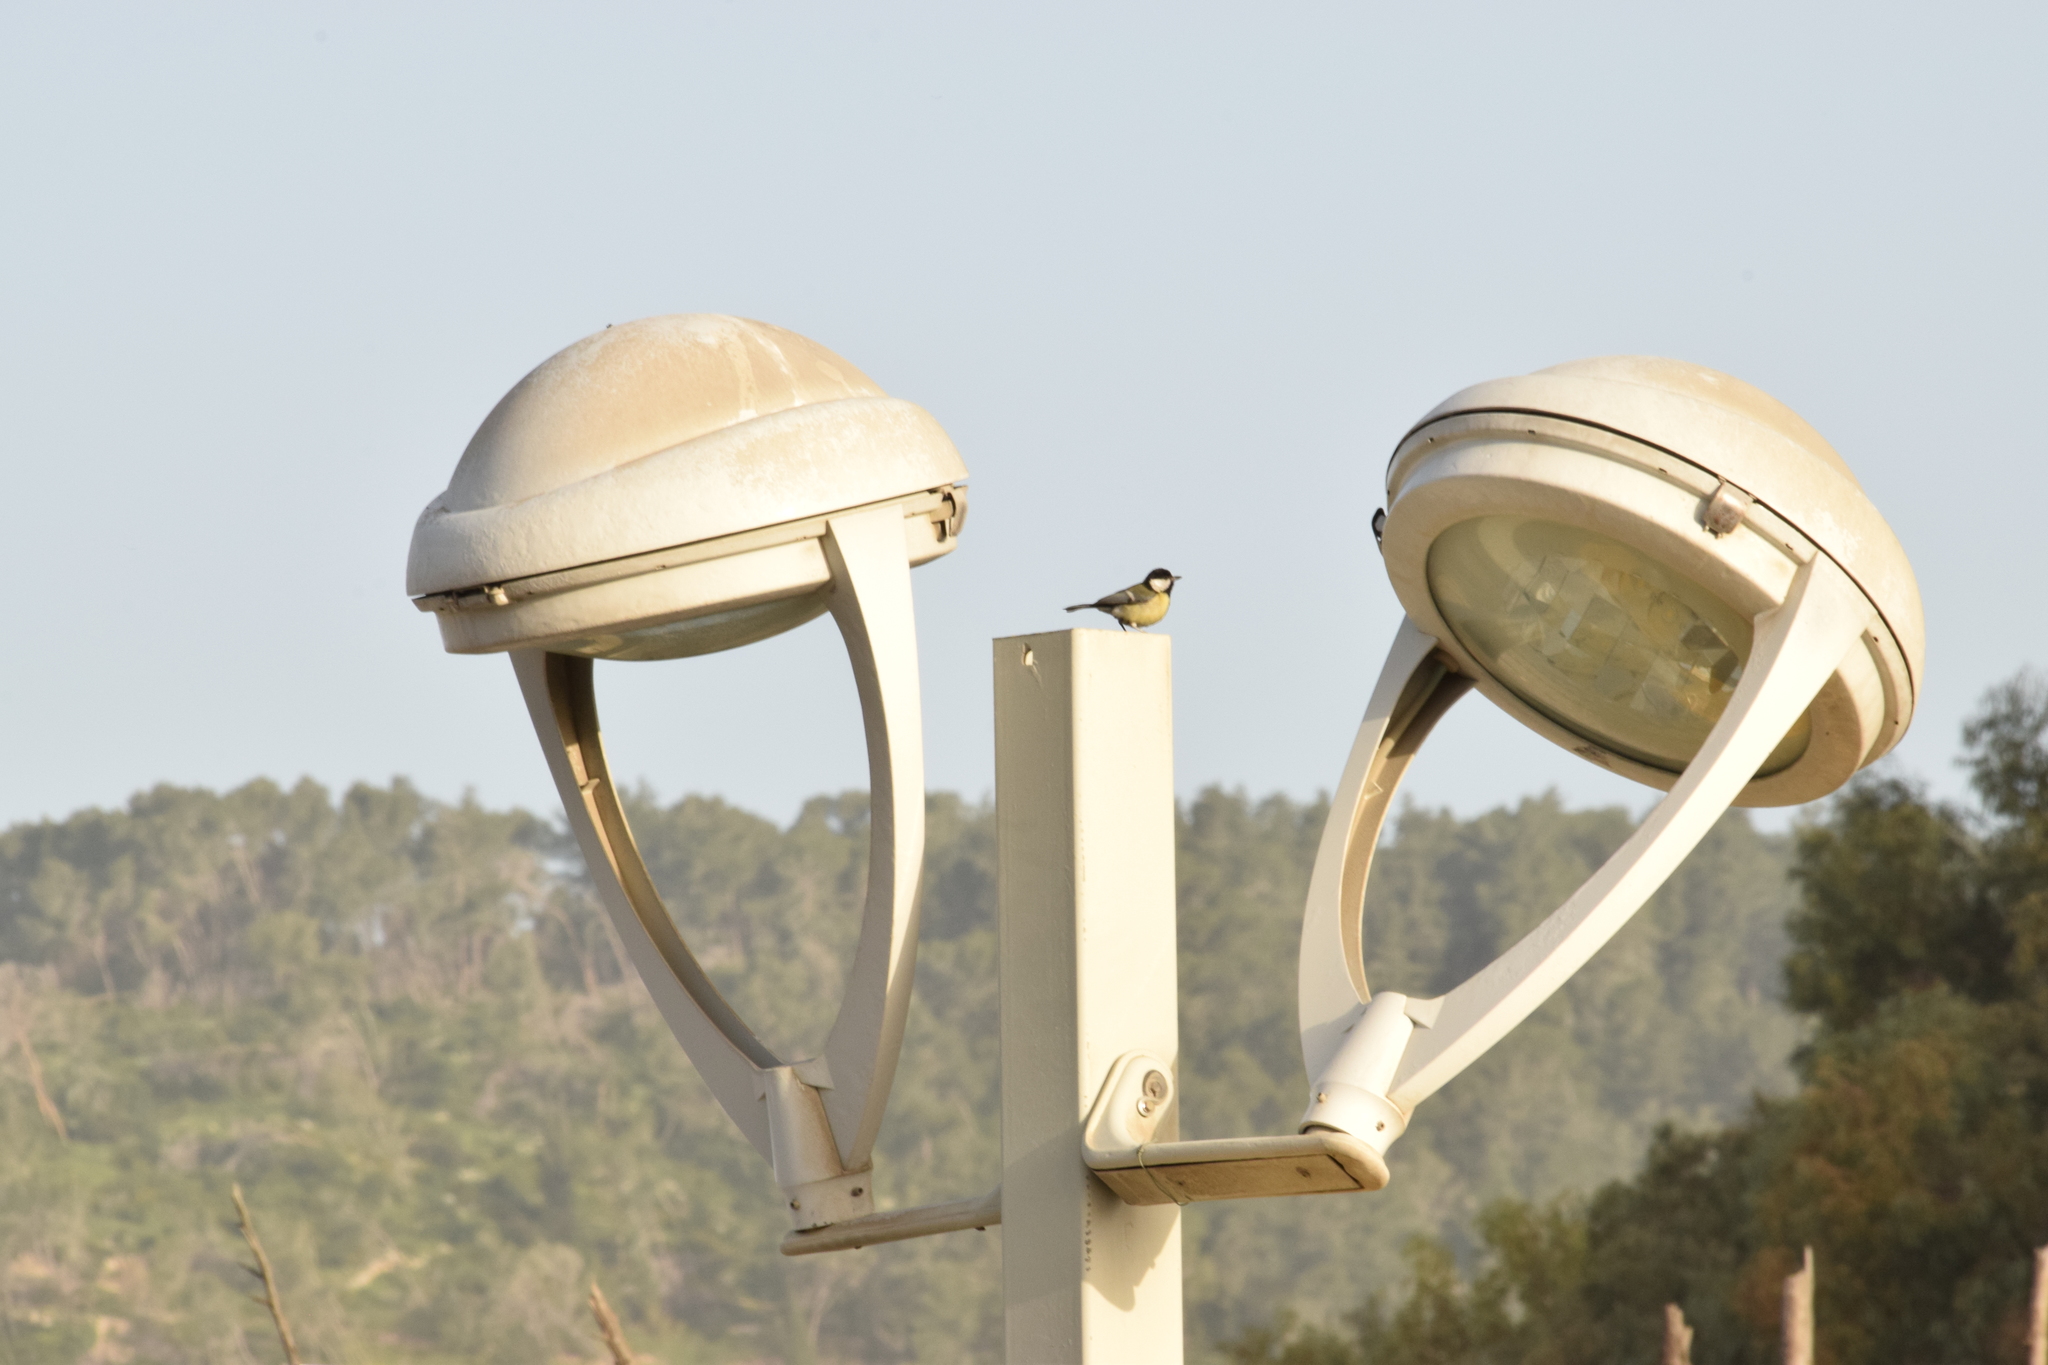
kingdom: Animalia
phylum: Chordata
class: Aves
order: Passeriformes
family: Paridae
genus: Parus
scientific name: Parus major
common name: Great tit
